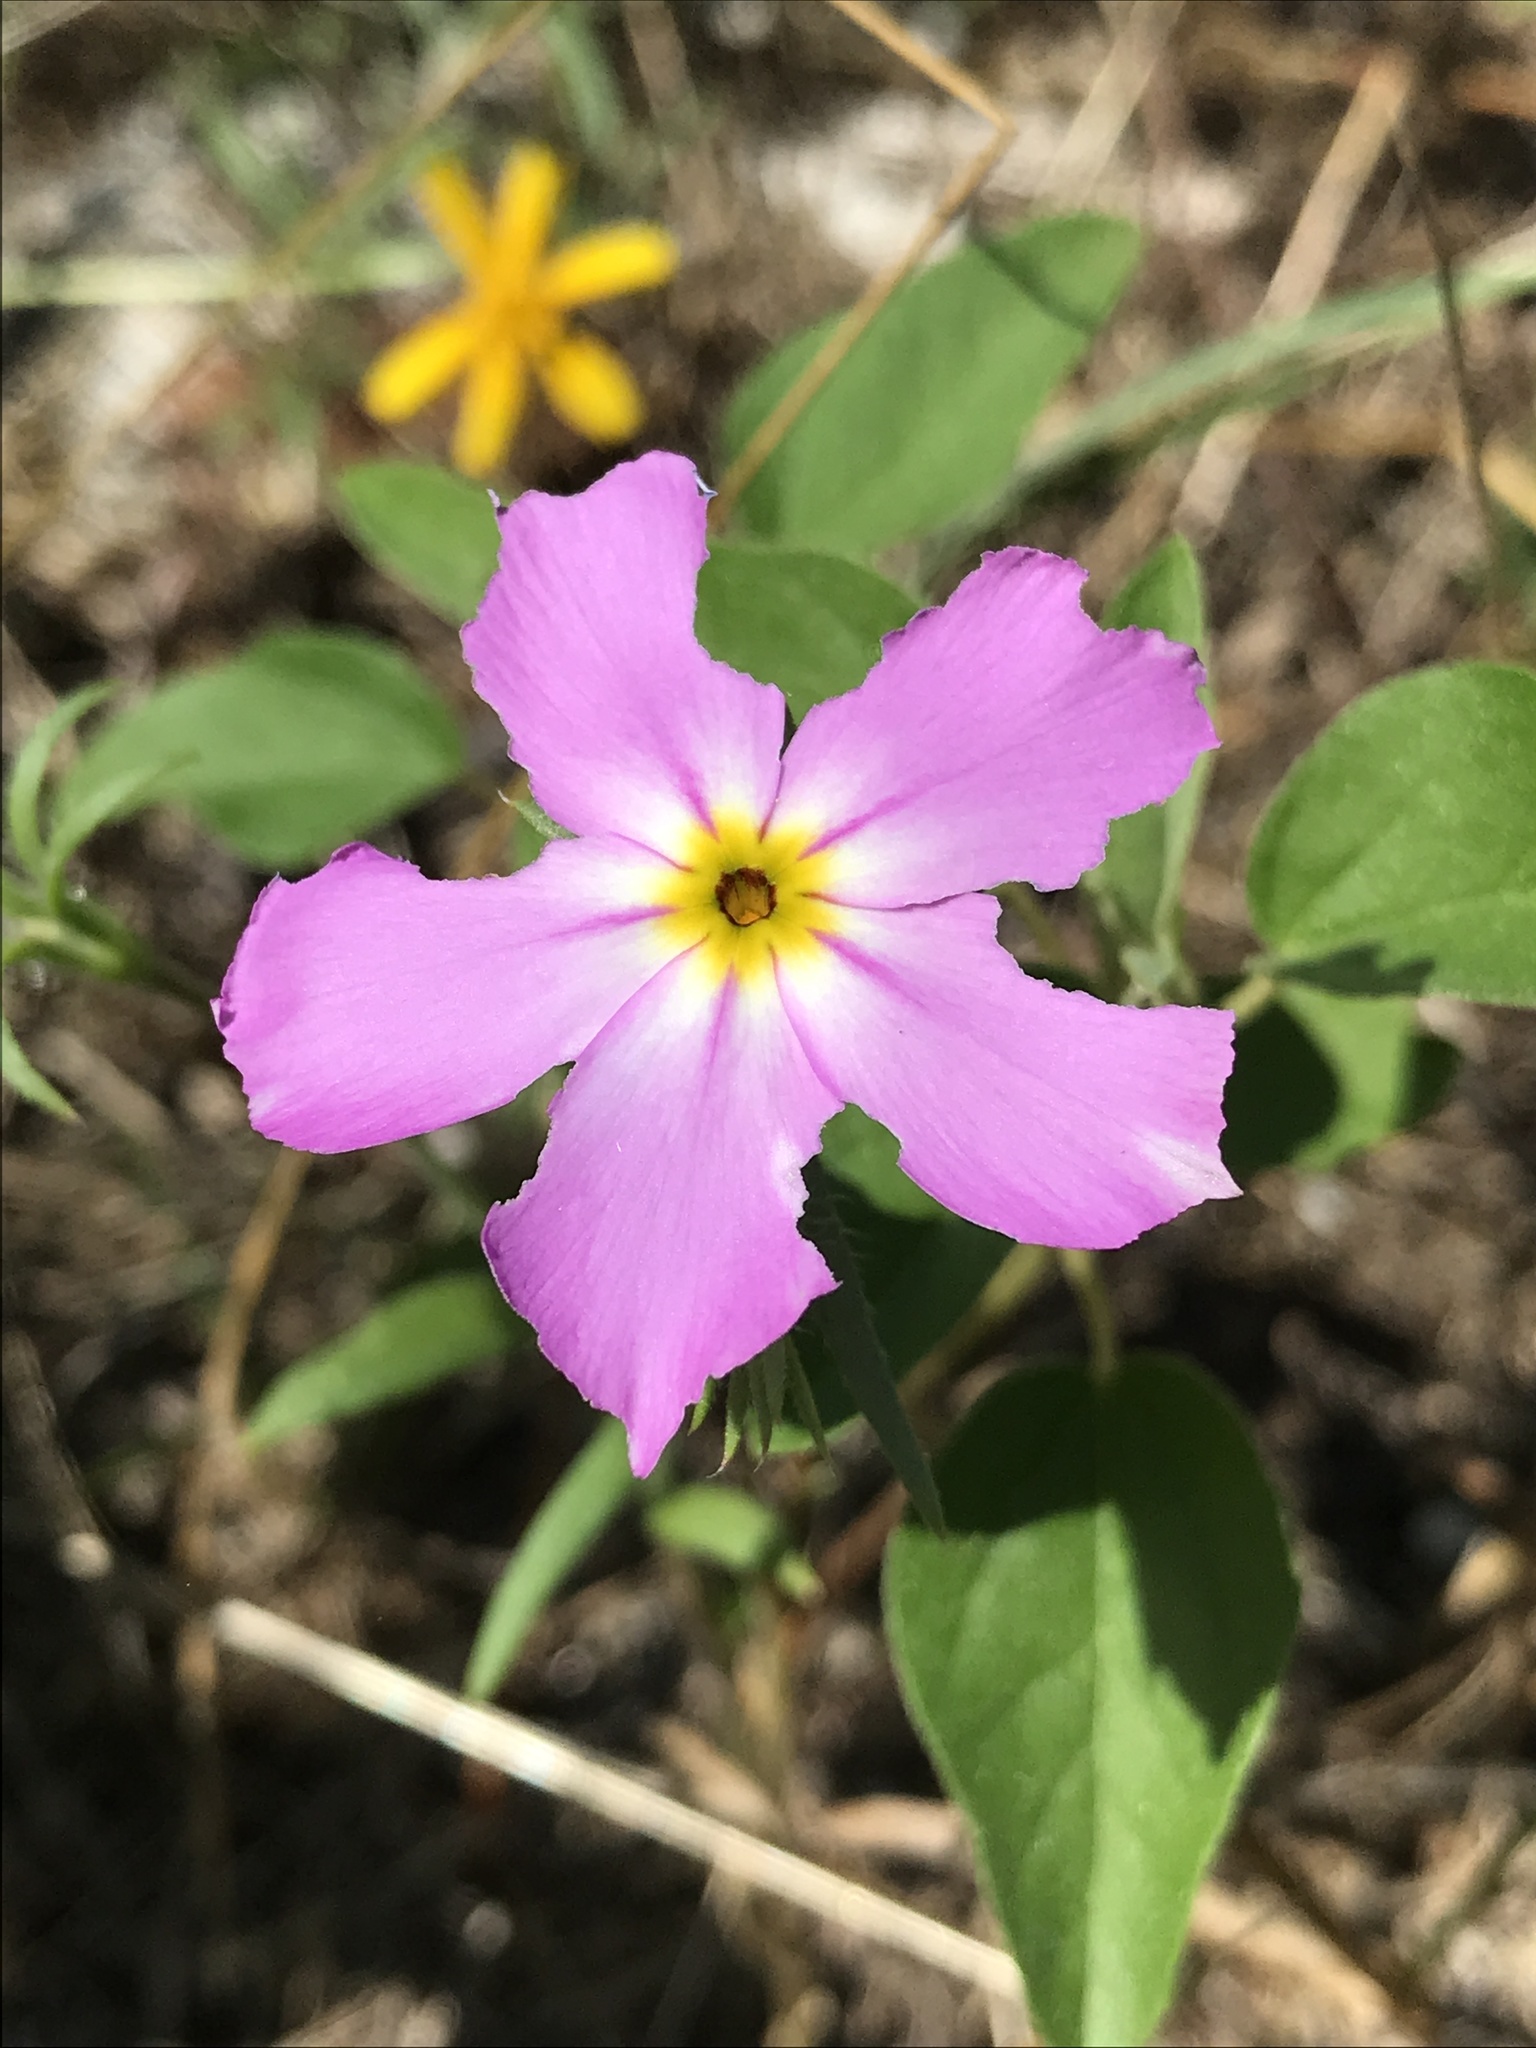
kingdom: Plantae
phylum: Tracheophyta
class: Magnoliopsida
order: Ericales
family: Polemoniaceae
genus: Phlox
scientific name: Phlox roemeriana
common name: Roemer's phlox
